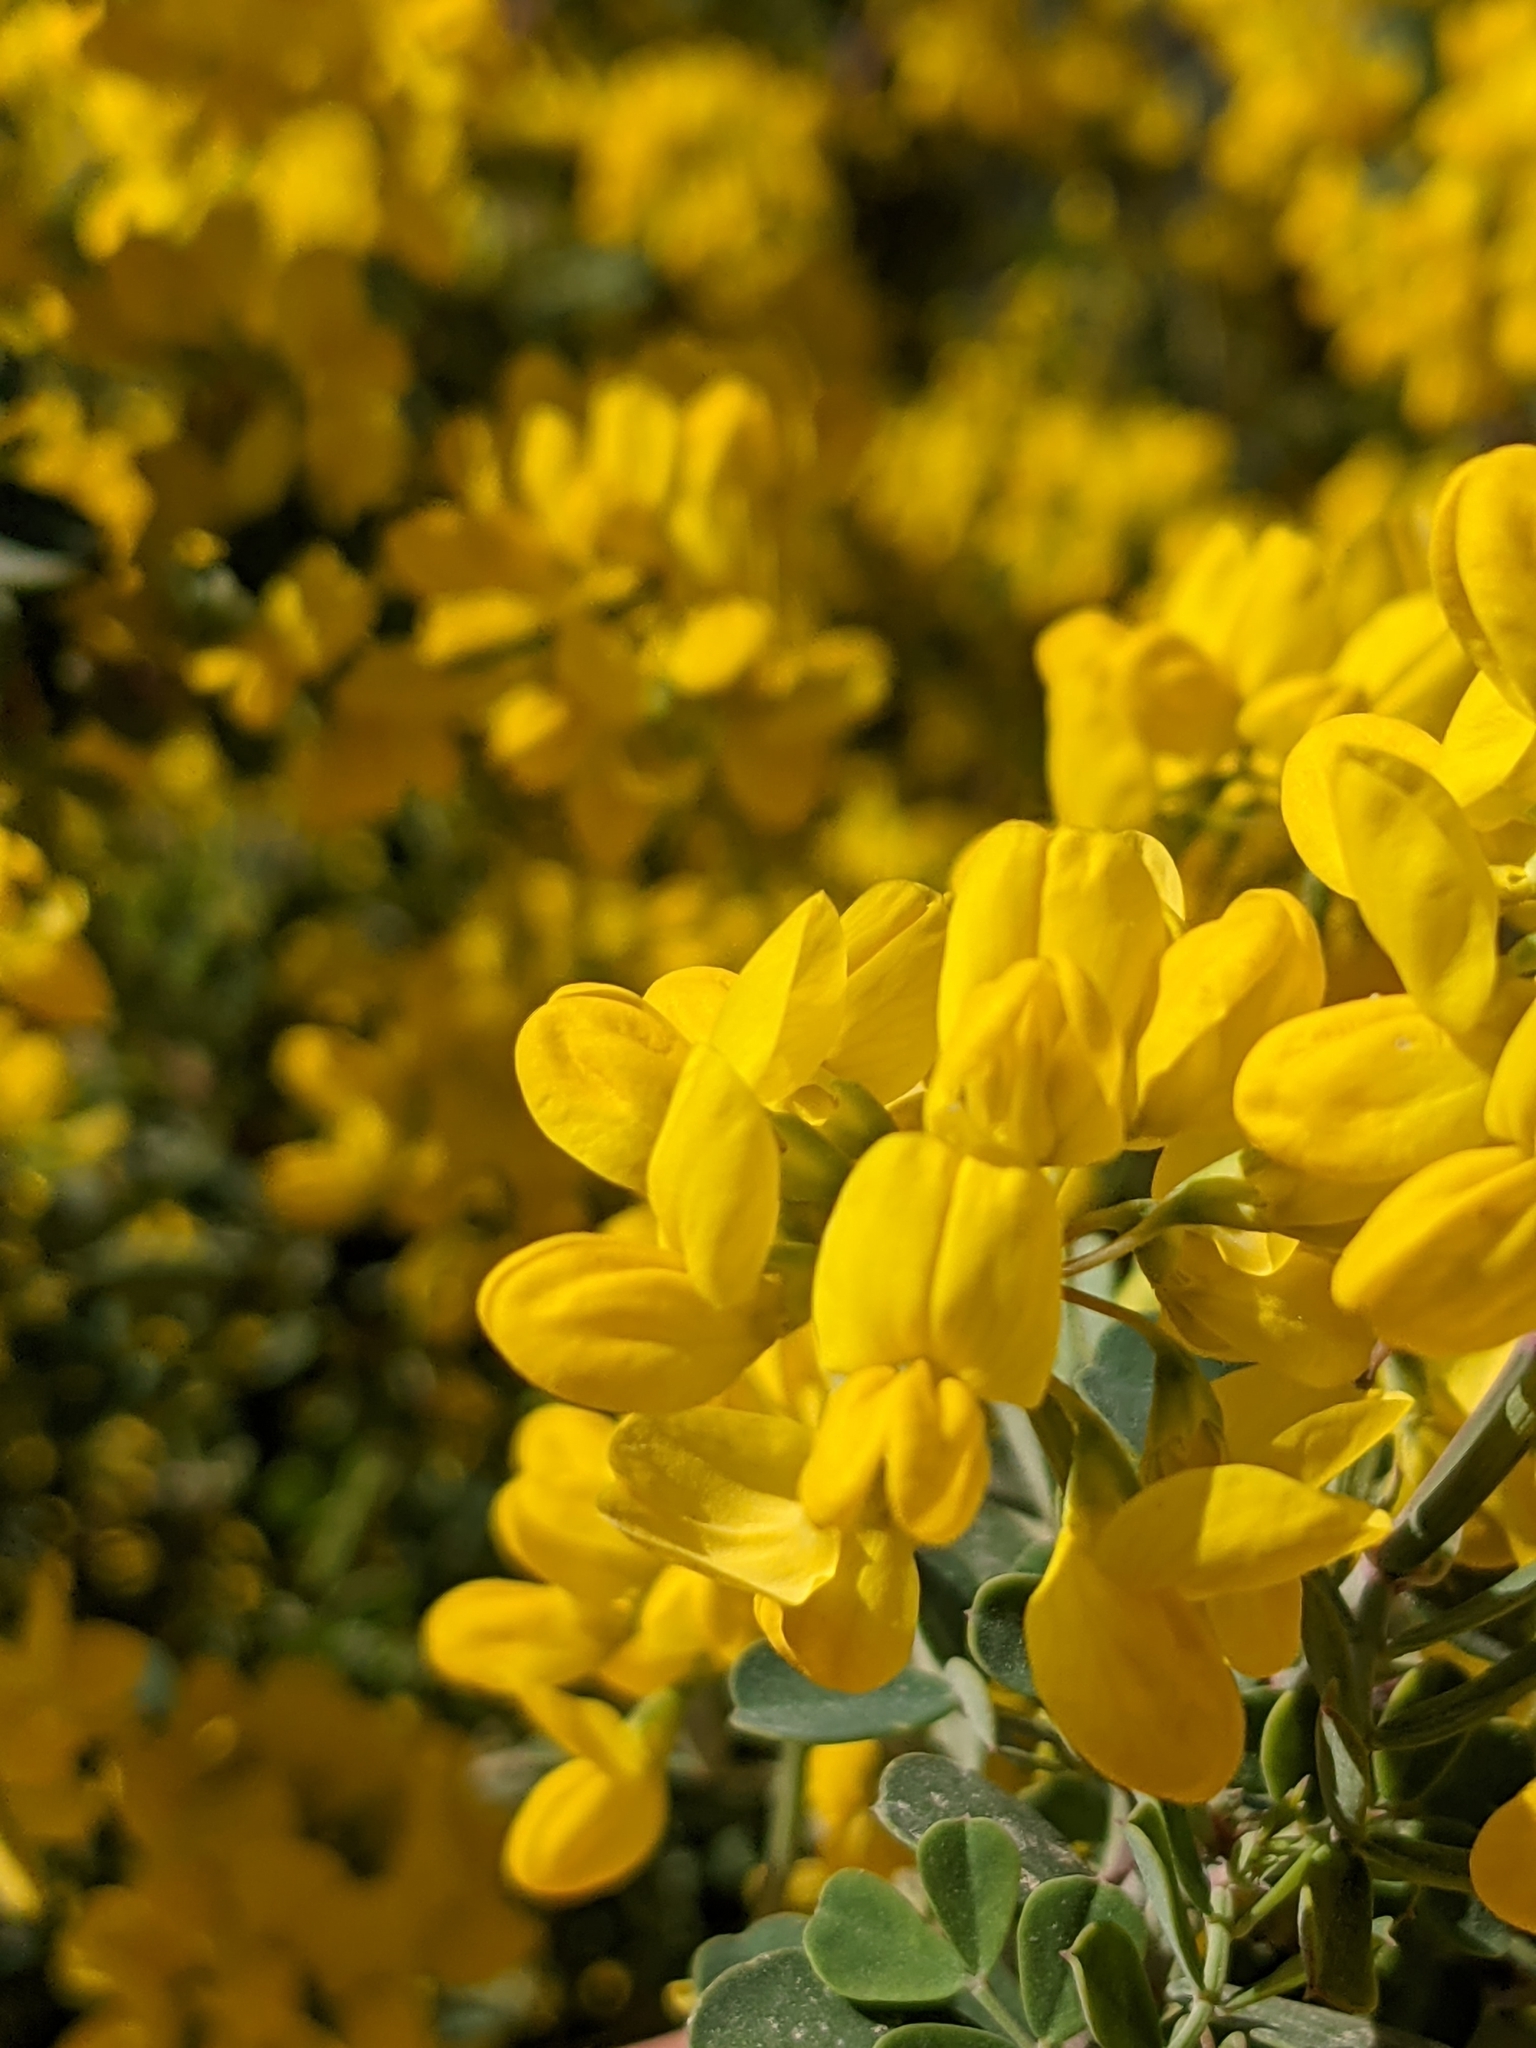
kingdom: Plantae
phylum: Tracheophyta
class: Magnoliopsida
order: Fabales
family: Fabaceae
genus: Coronilla
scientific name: Coronilla valentina
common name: Shrubby scorpion-vetch
